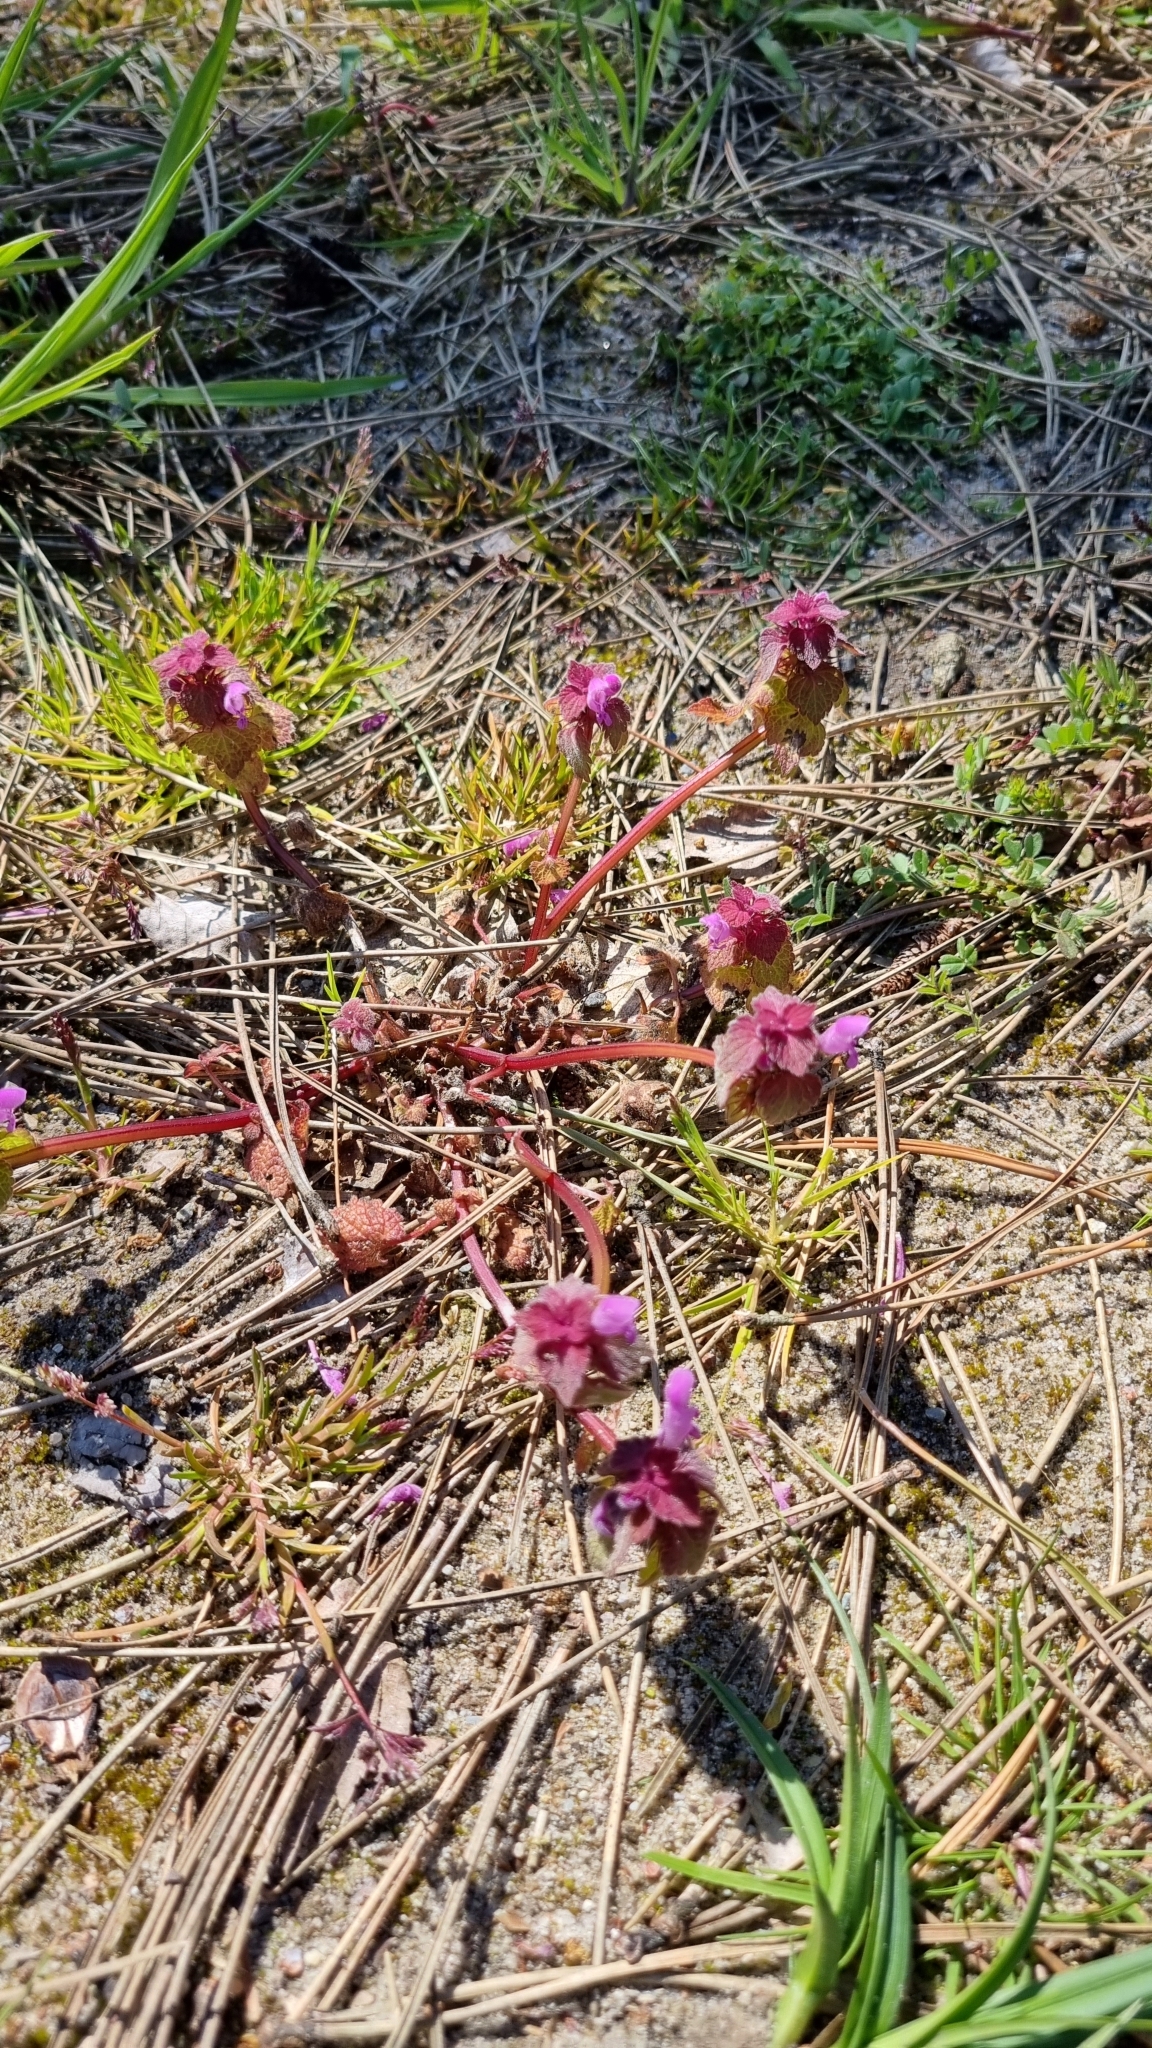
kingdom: Plantae
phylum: Tracheophyta
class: Magnoliopsida
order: Lamiales
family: Lamiaceae
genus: Lamium
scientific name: Lamium purpureum
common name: Red dead-nettle
